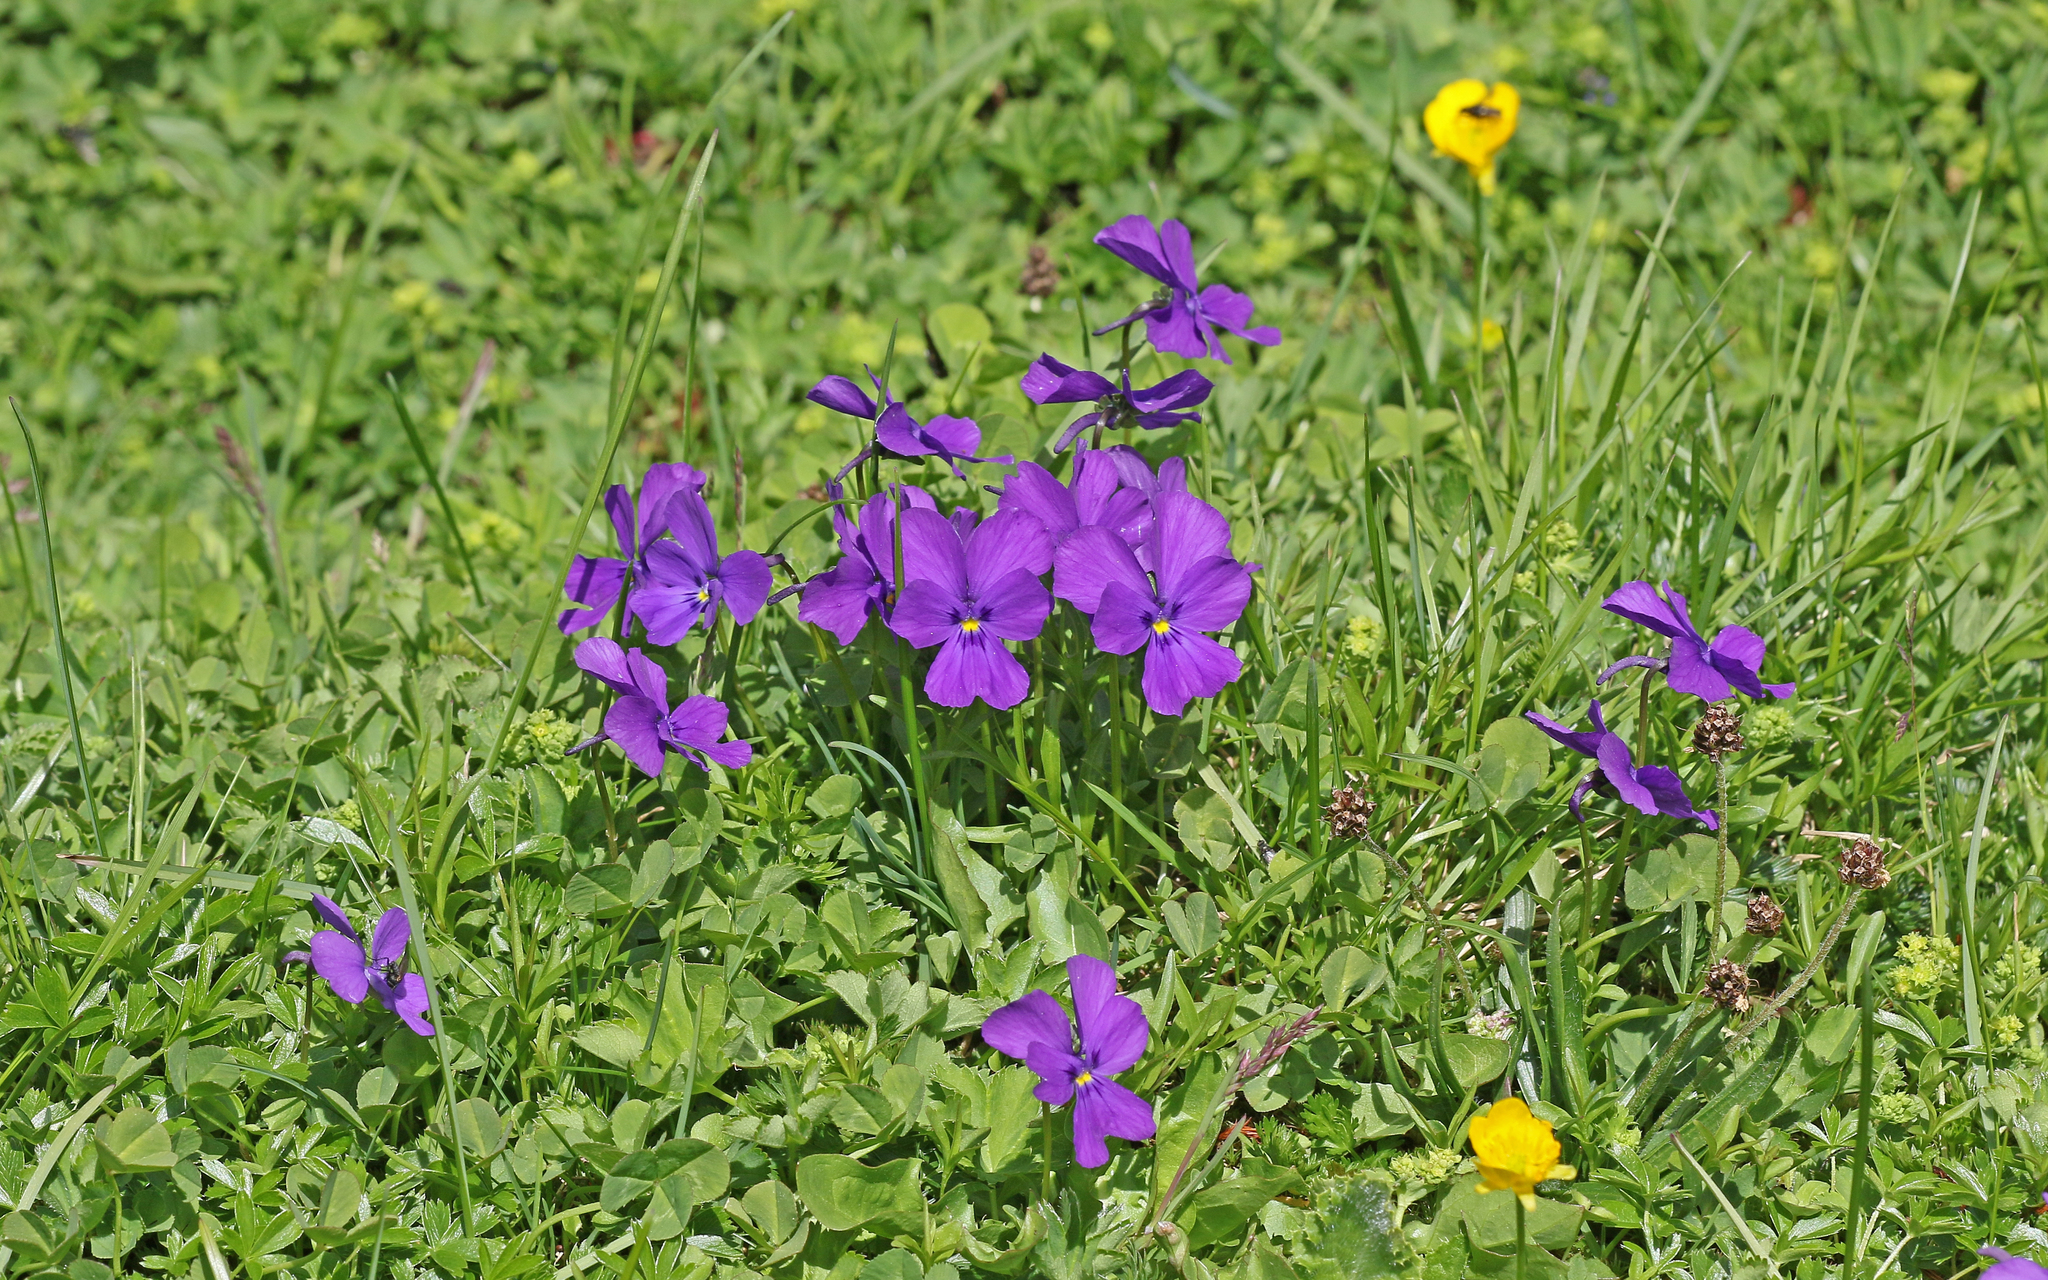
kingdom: Plantae
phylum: Tracheophyta
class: Magnoliopsida
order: Malpighiales
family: Violaceae
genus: Viola
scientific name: Viola calcarata
